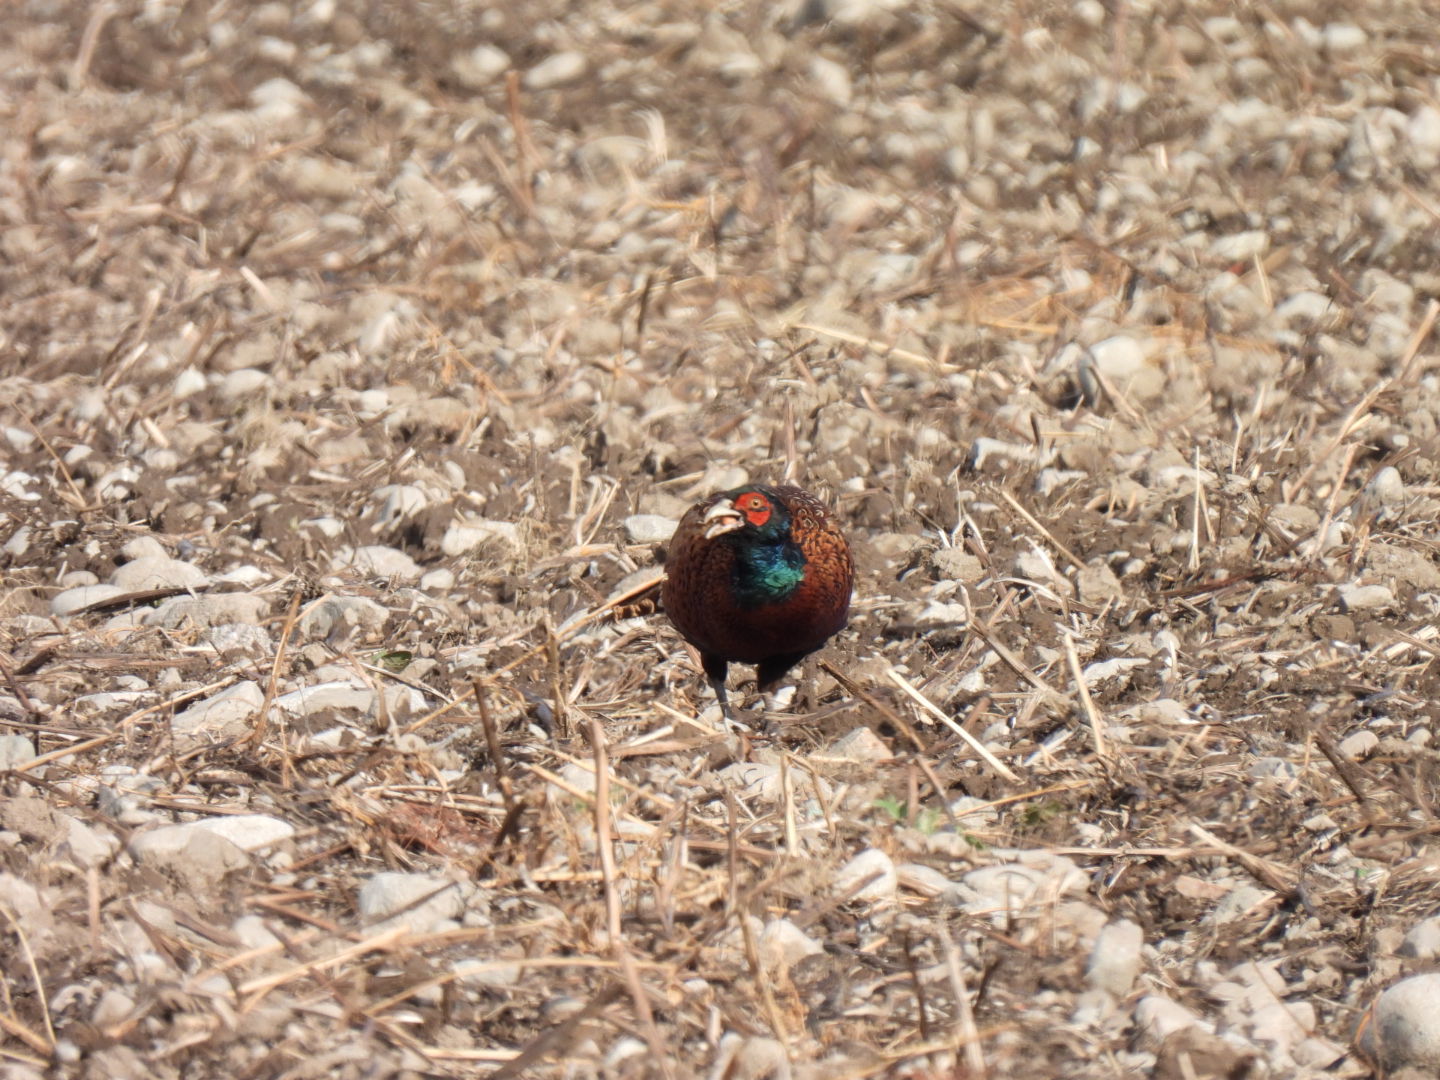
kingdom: Animalia
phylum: Chordata
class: Aves
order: Galliformes
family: Phasianidae
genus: Phasianus
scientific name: Phasianus colchicus
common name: Common pheasant
